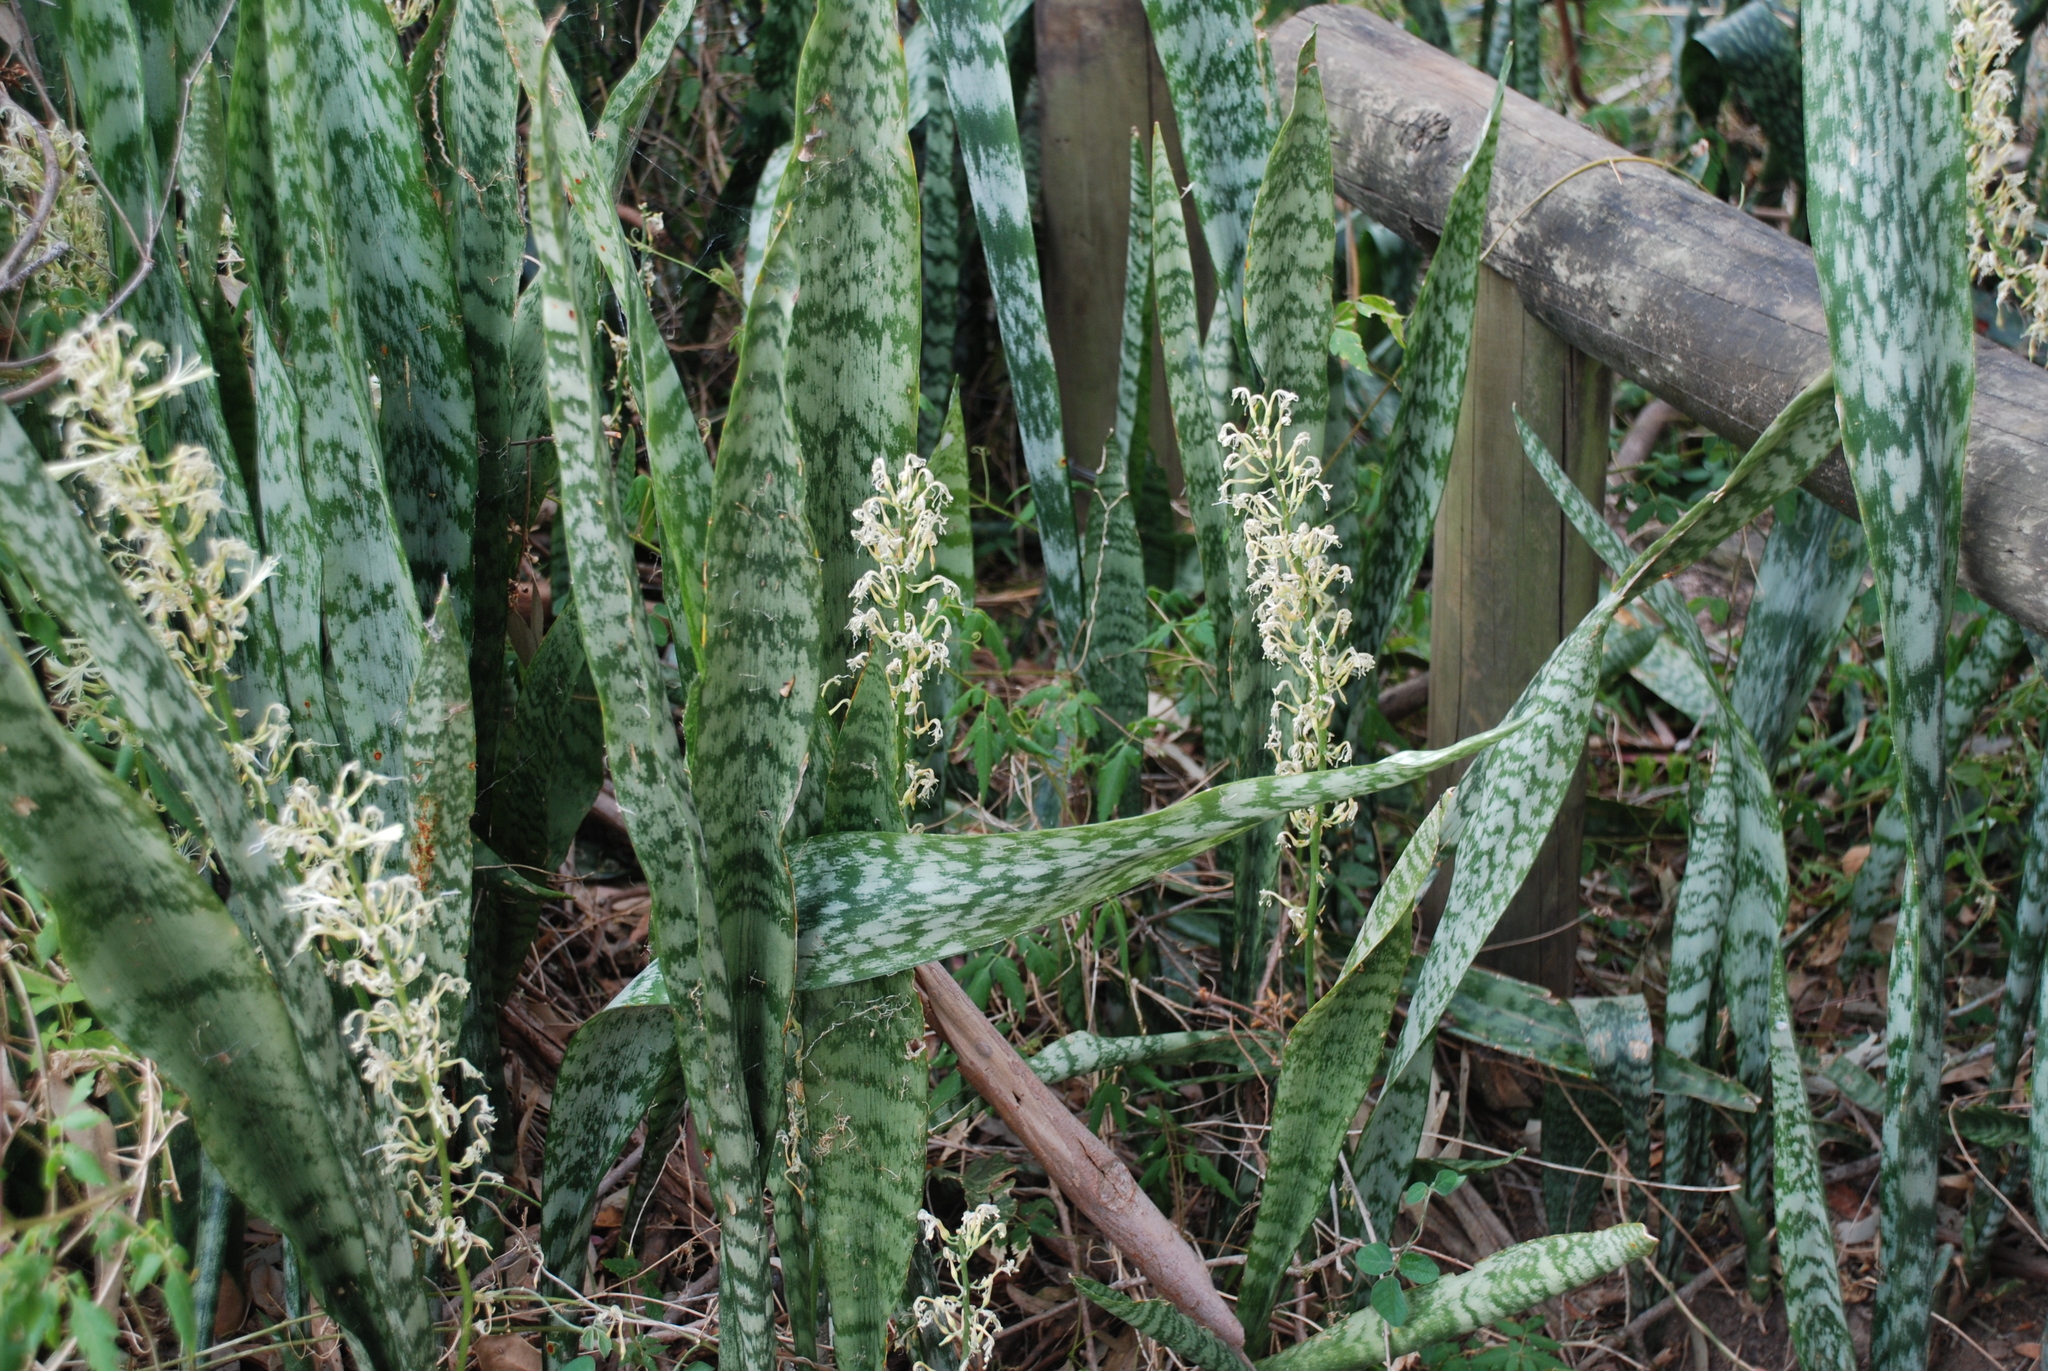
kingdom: Plantae
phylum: Tracheophyta
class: Liliopsida
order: Asparagales
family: Asparagaceae
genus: Dracaena
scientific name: Dracaena trifasciata
